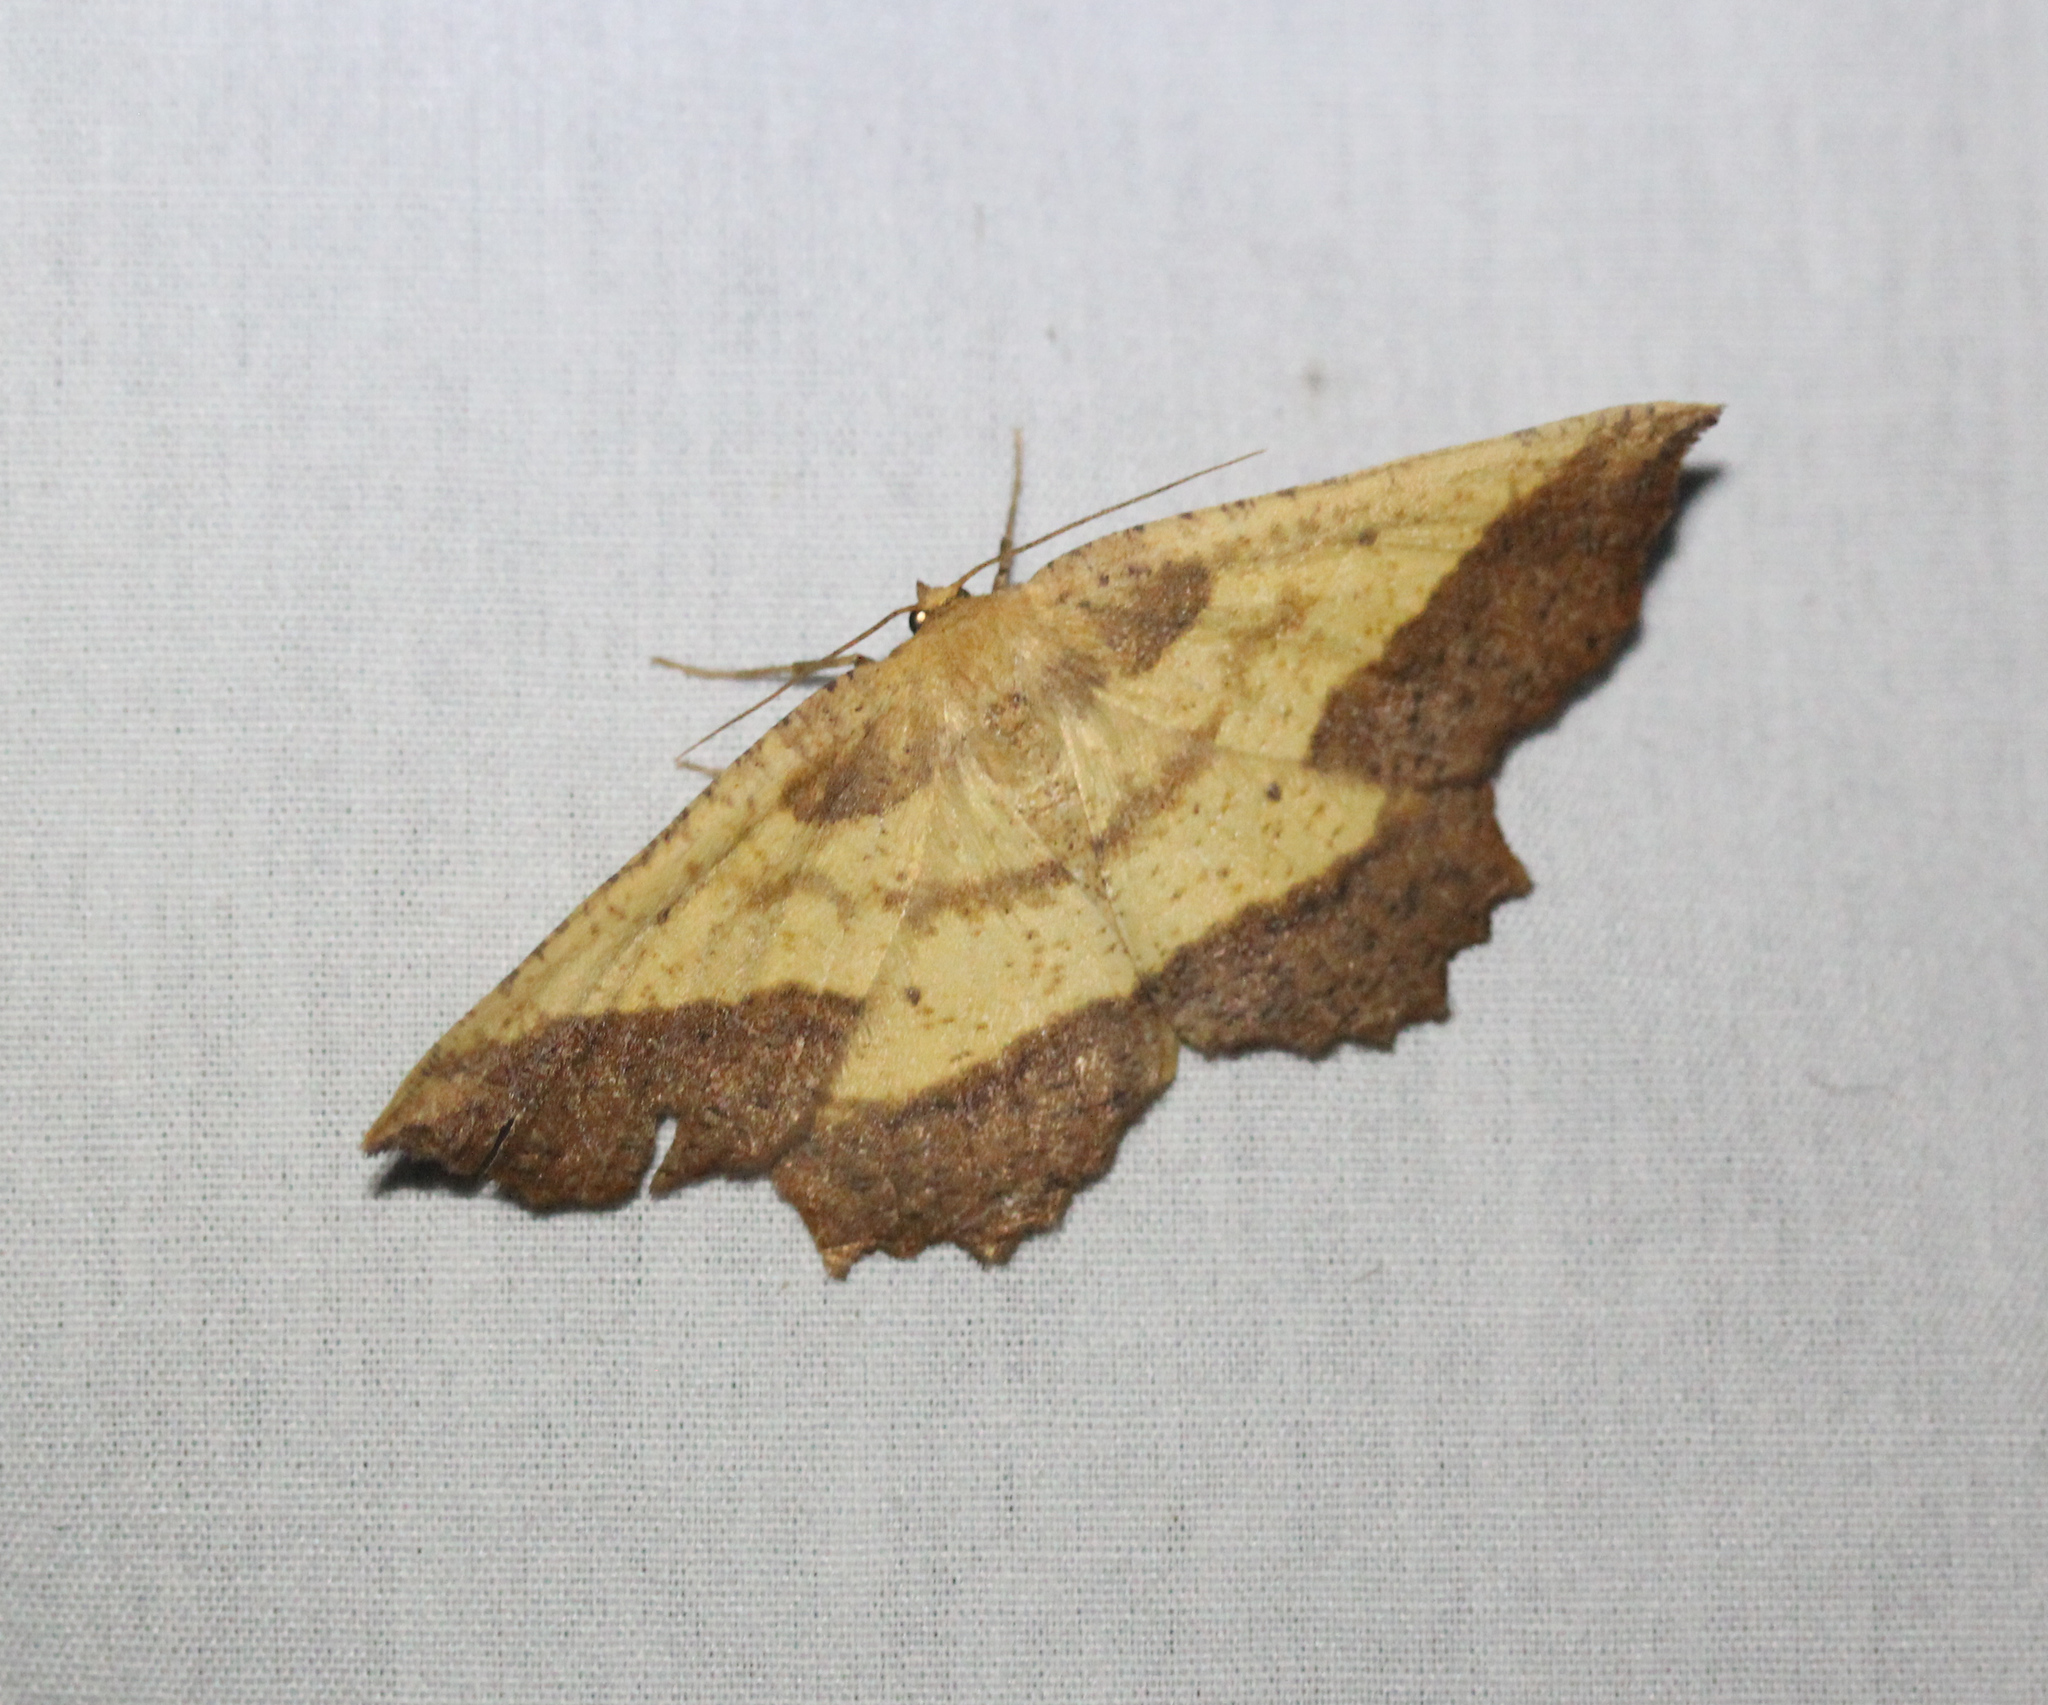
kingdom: Animalia
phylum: Arthropoda
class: Insecta
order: Lepidoptera
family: Geometridae
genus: Euchlaena
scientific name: Euchlaena serrata
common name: Saw wing
